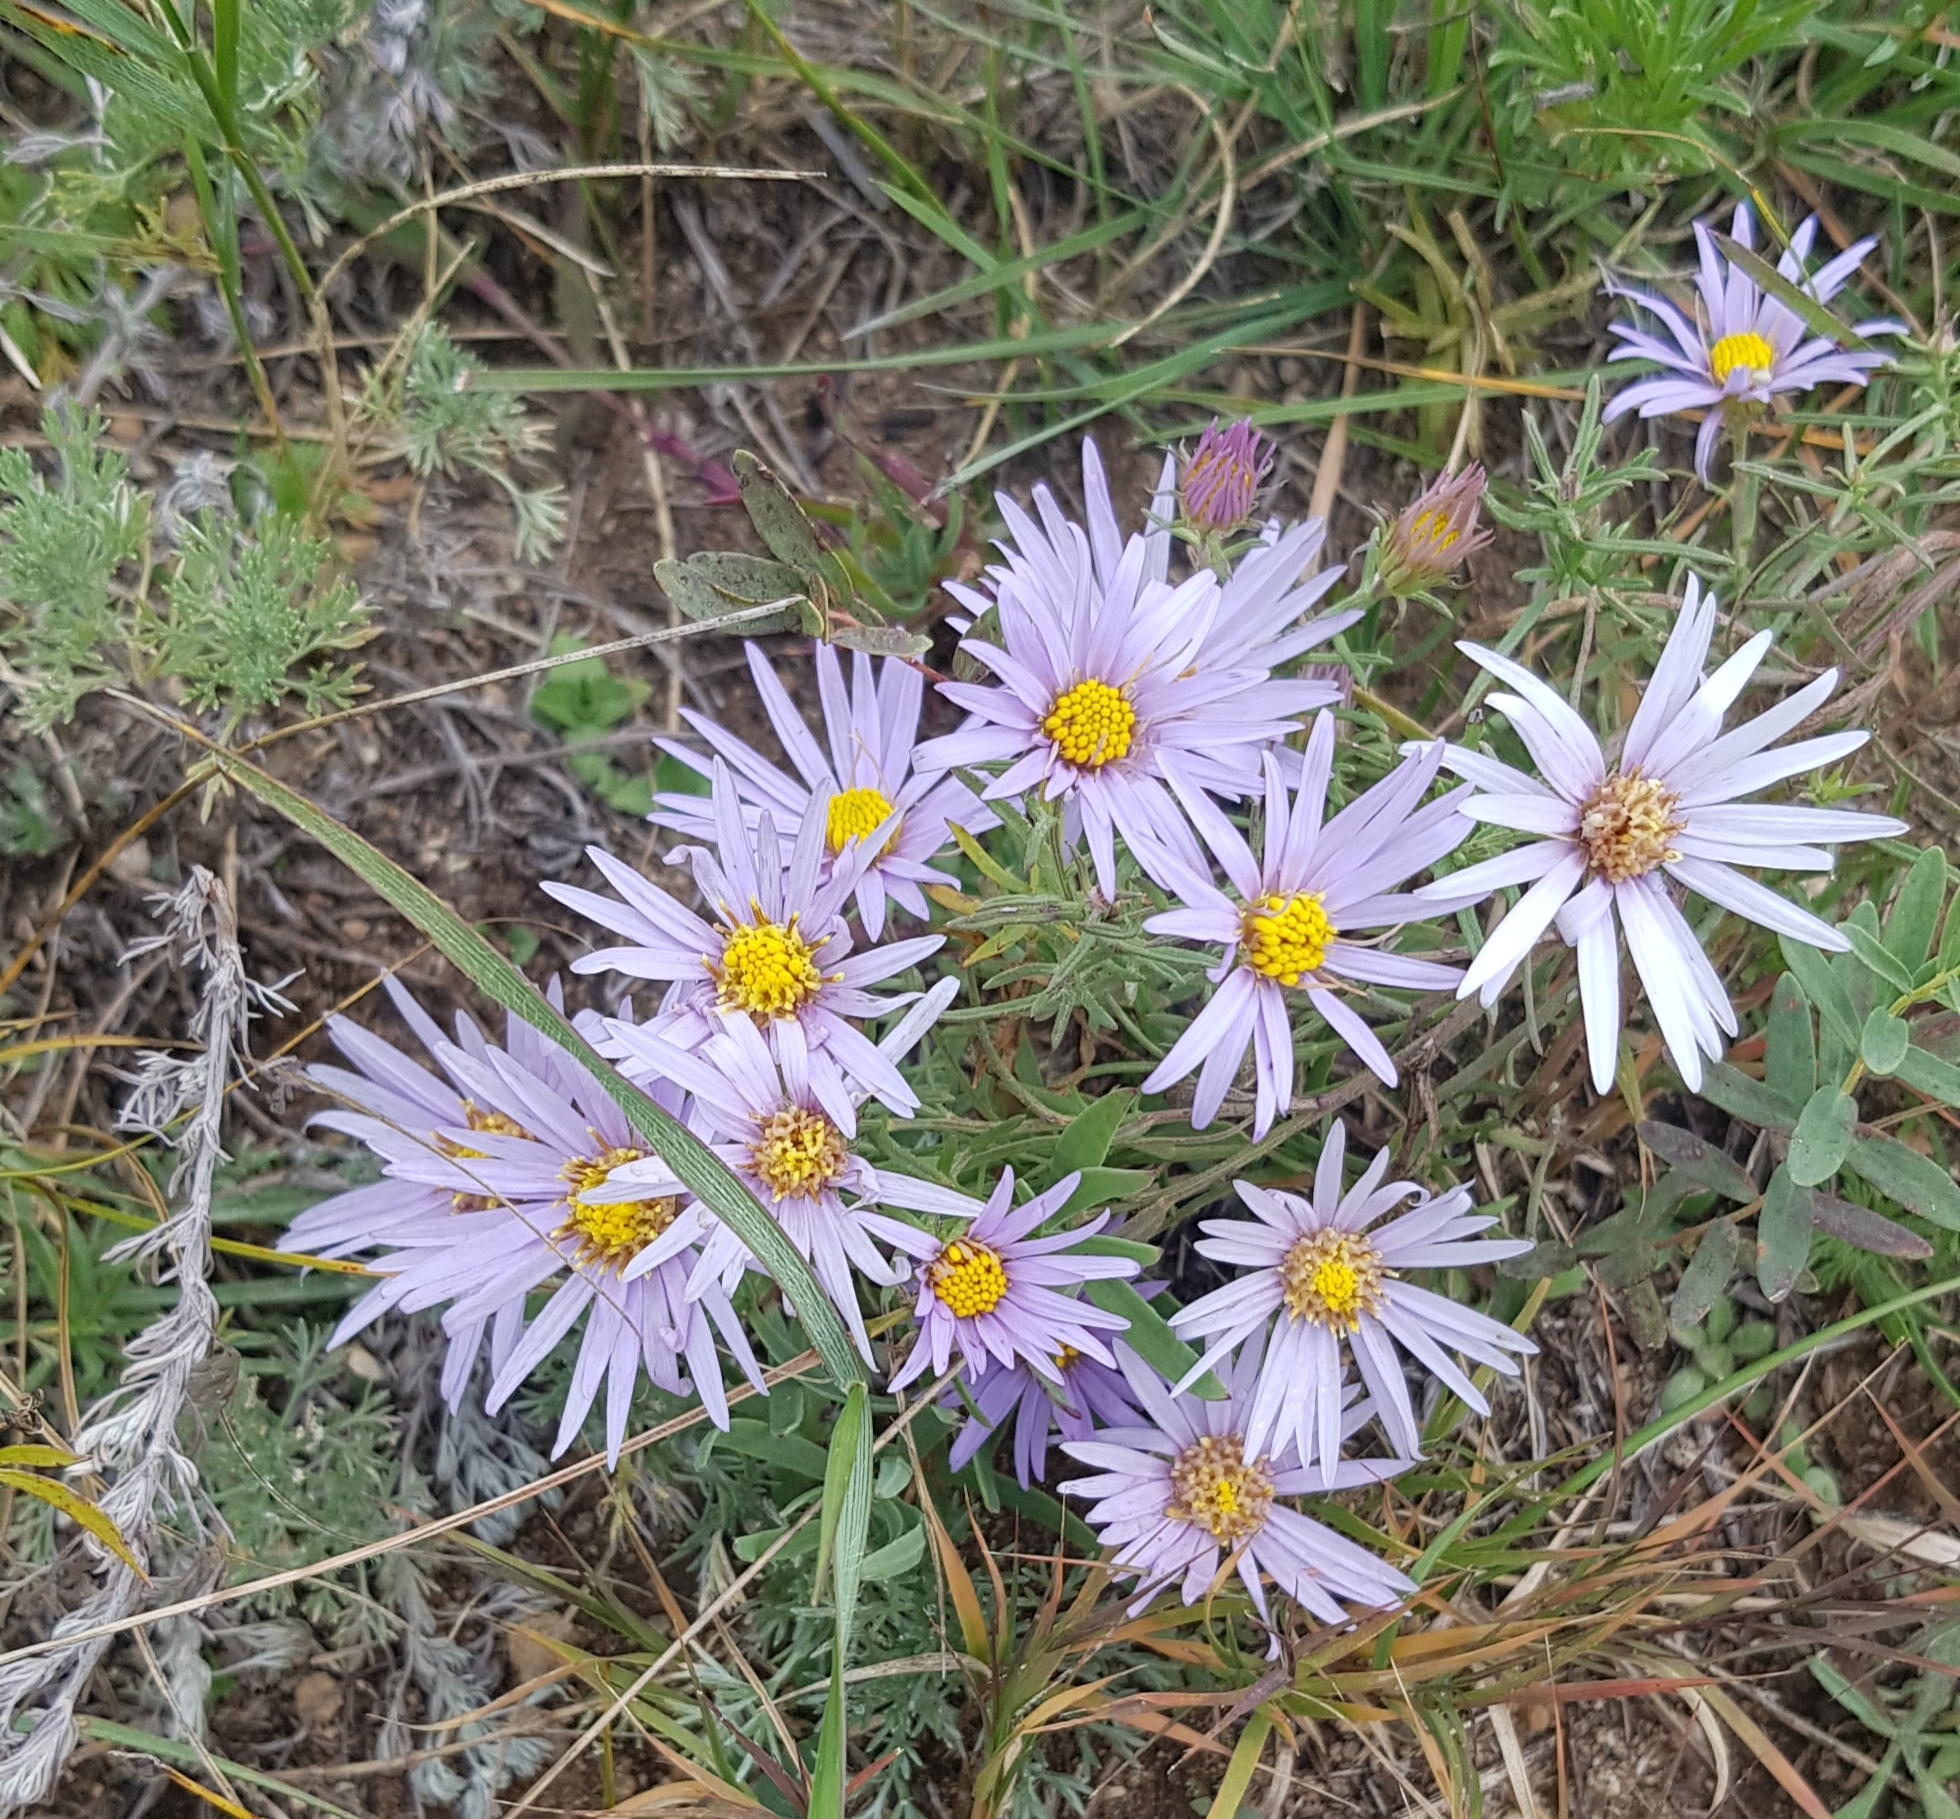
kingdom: Plantae
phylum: Tracheophyta
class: Magnoliopsida
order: Asterales
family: Asteraceae
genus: Aster
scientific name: Aster biennis
